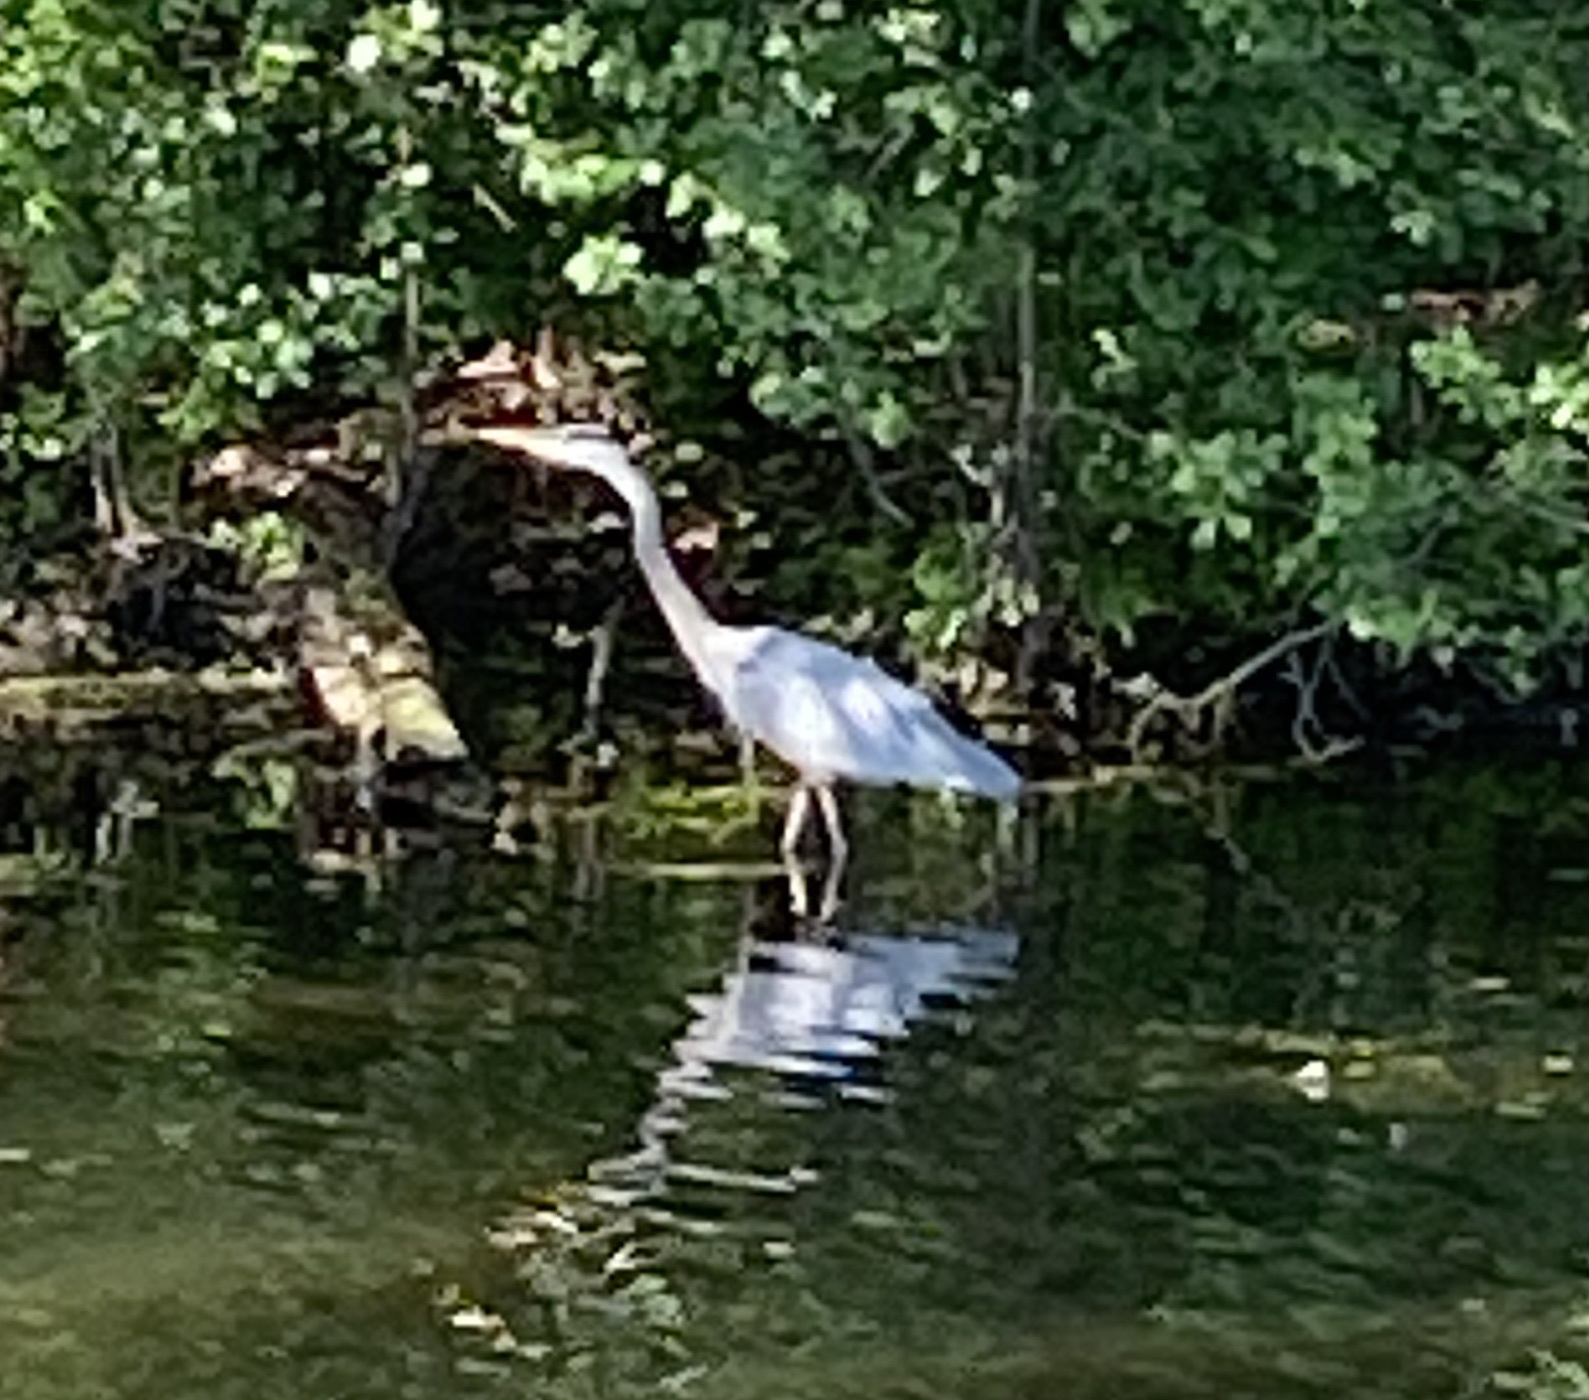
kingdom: Animalia
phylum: Chordata
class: Aves
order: Pelecaniformes
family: Ardeidae
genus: Ardea
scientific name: Ardea herodias
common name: Great blue heron
